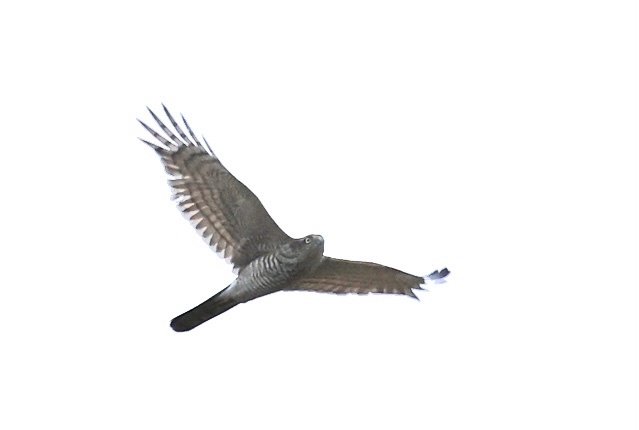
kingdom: Animalia
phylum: Chordata
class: Aves
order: Accipitriformes
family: Accipitridae
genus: Accipiter
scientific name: Accipiter nisus
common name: Eurasian sparrowhawk
